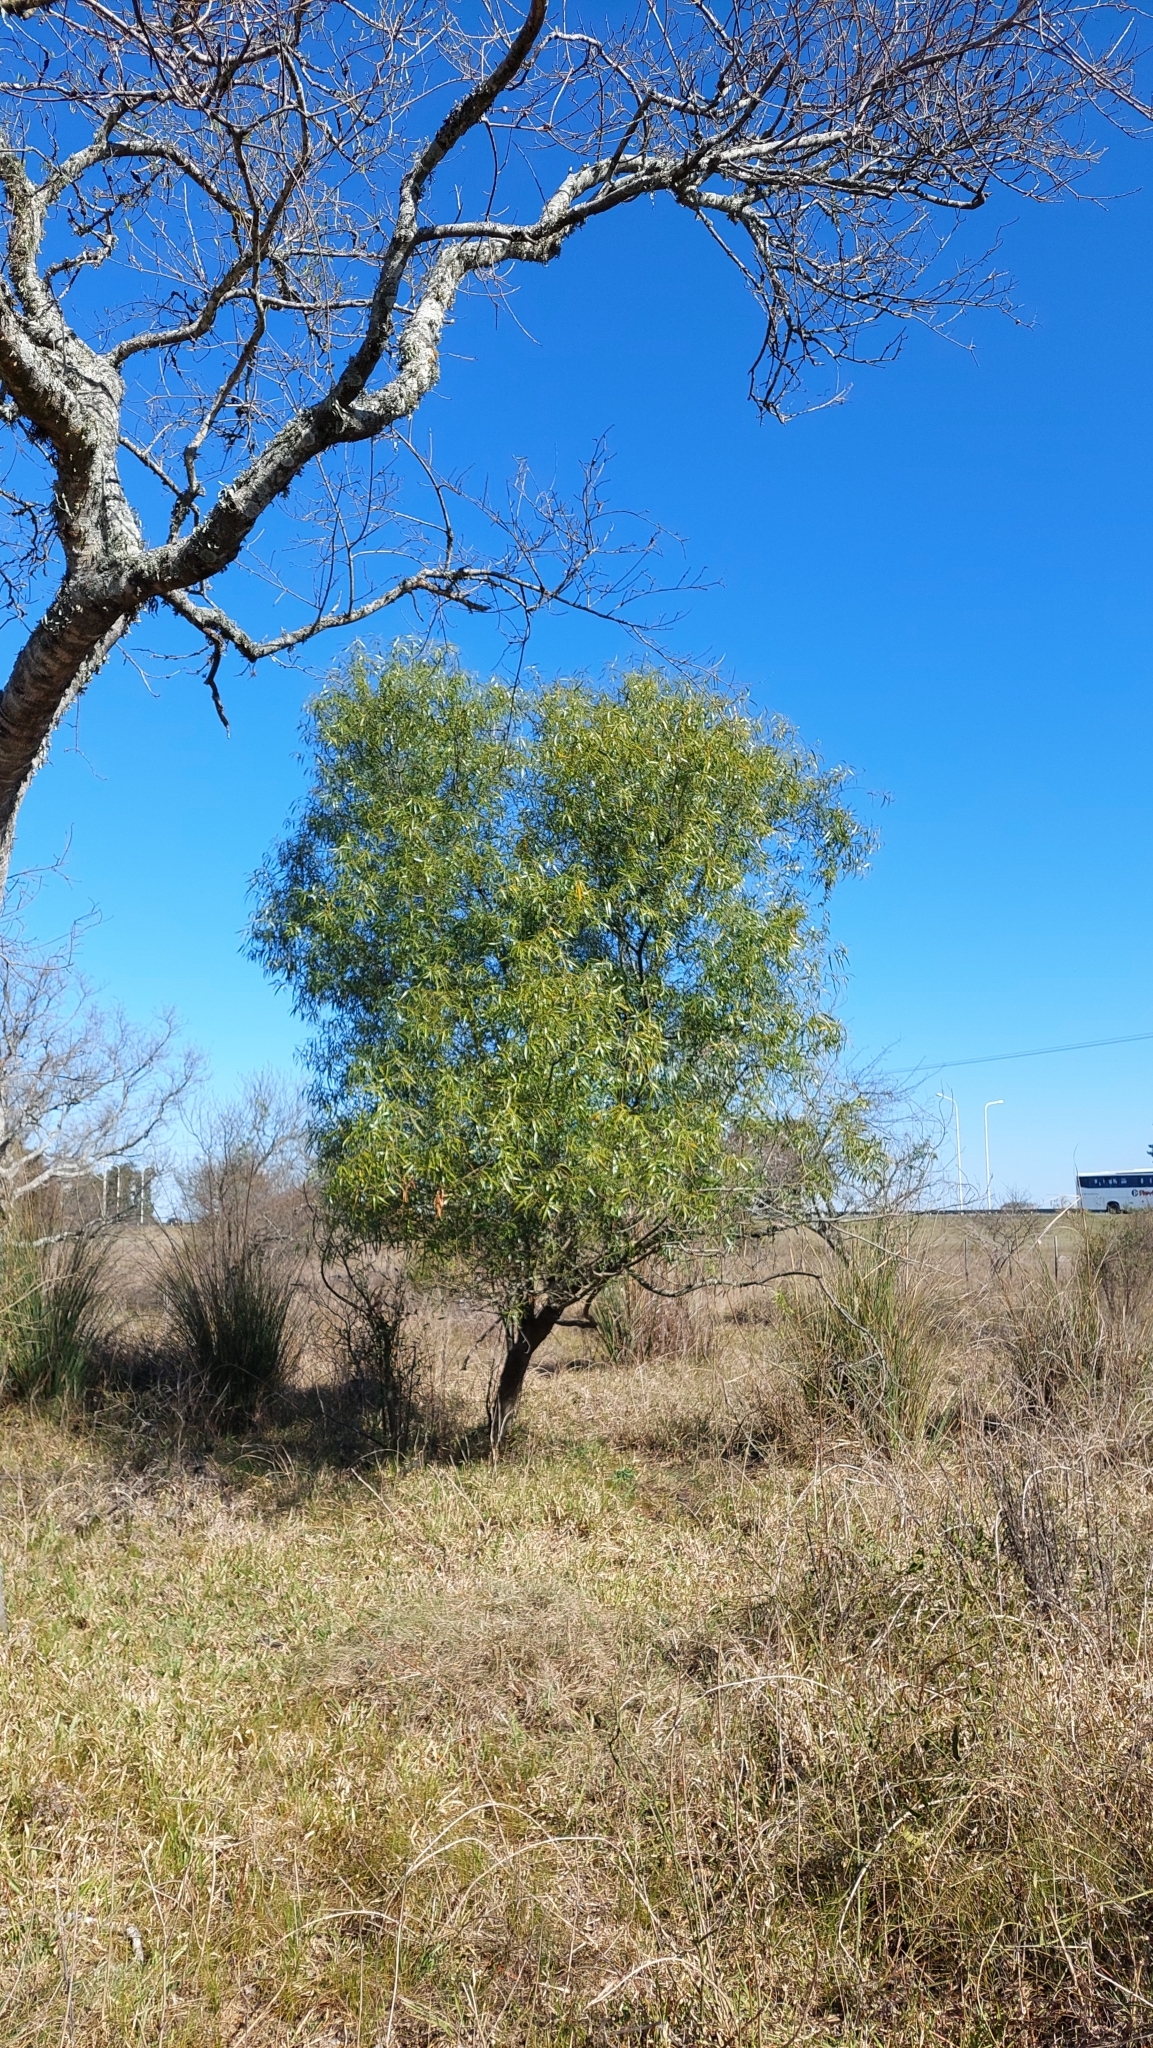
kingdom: Plantae
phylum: Tracheophyta
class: Magnoliopsida
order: Laurales
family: Lauraceae
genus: Nectandra
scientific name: Nectandra angustifolia
